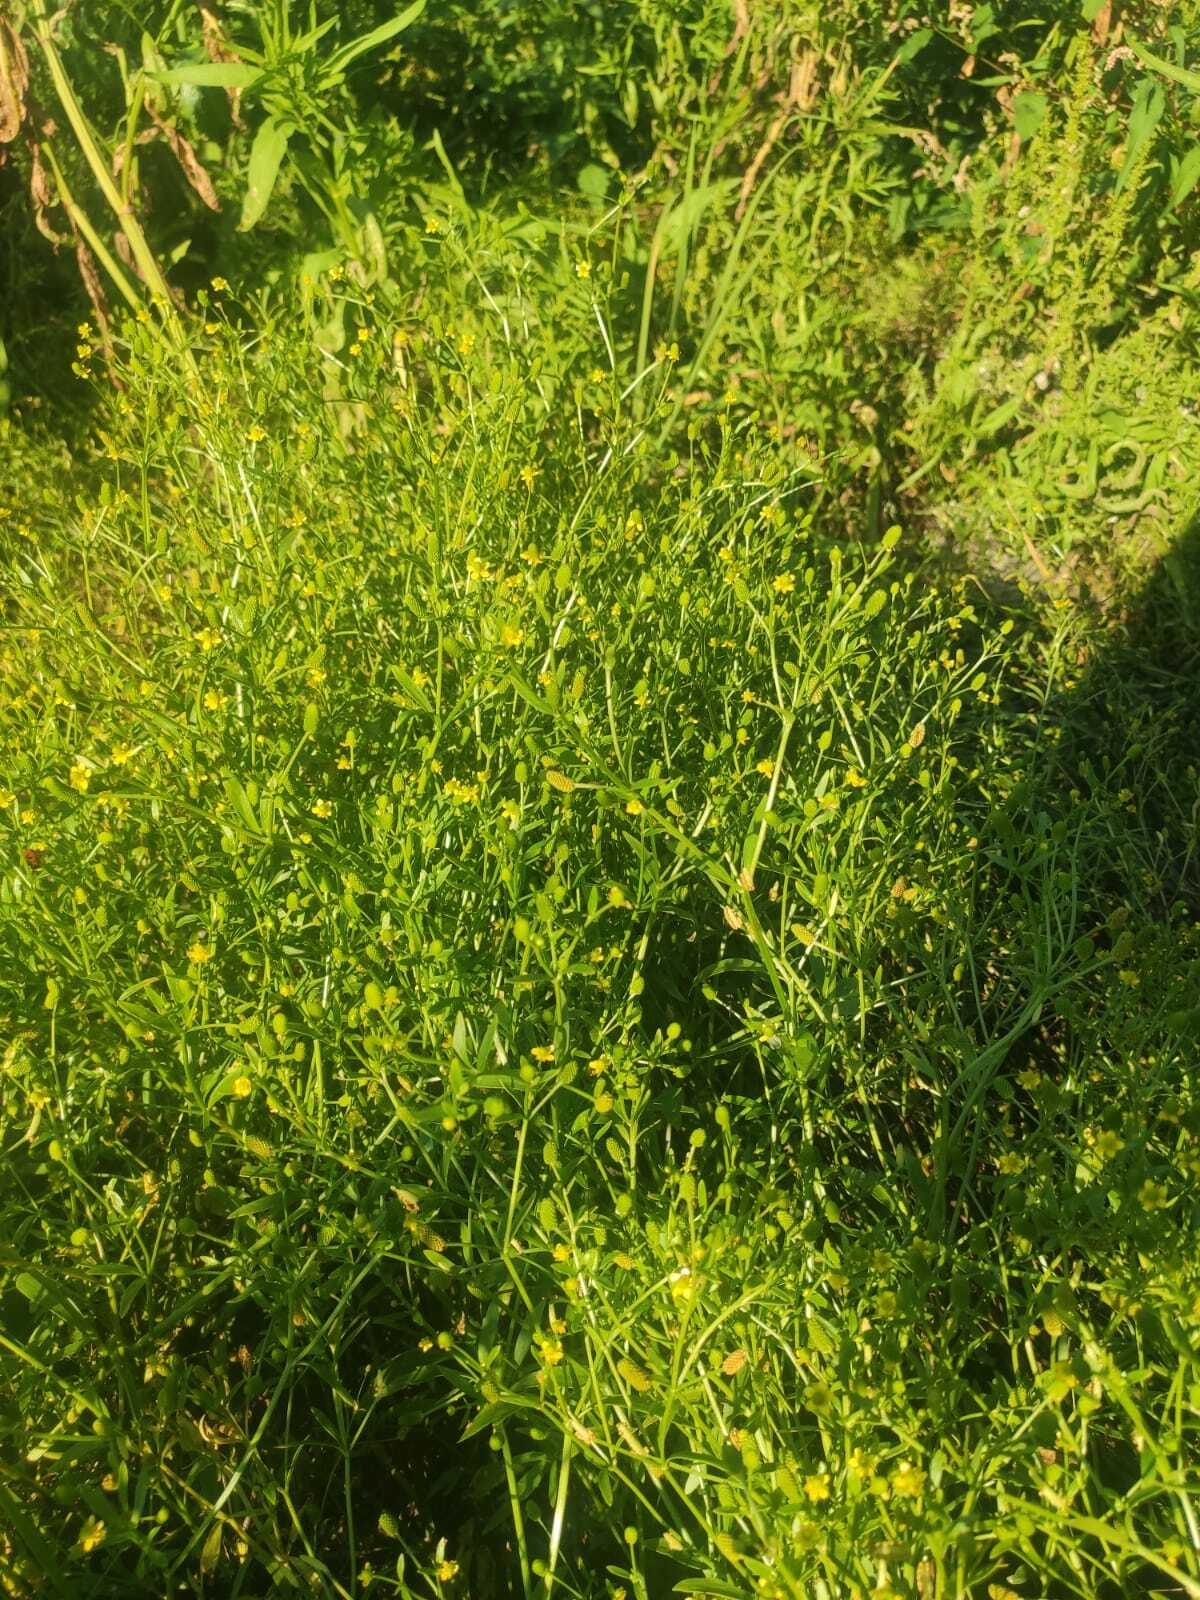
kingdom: Plantae
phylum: Tracheophyta
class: Magnoliopsida
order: Ranunculales
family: Ranunculaceae
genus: Ranunculus
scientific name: Ranunculus sceleratus
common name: Celery-leaved buttercup
